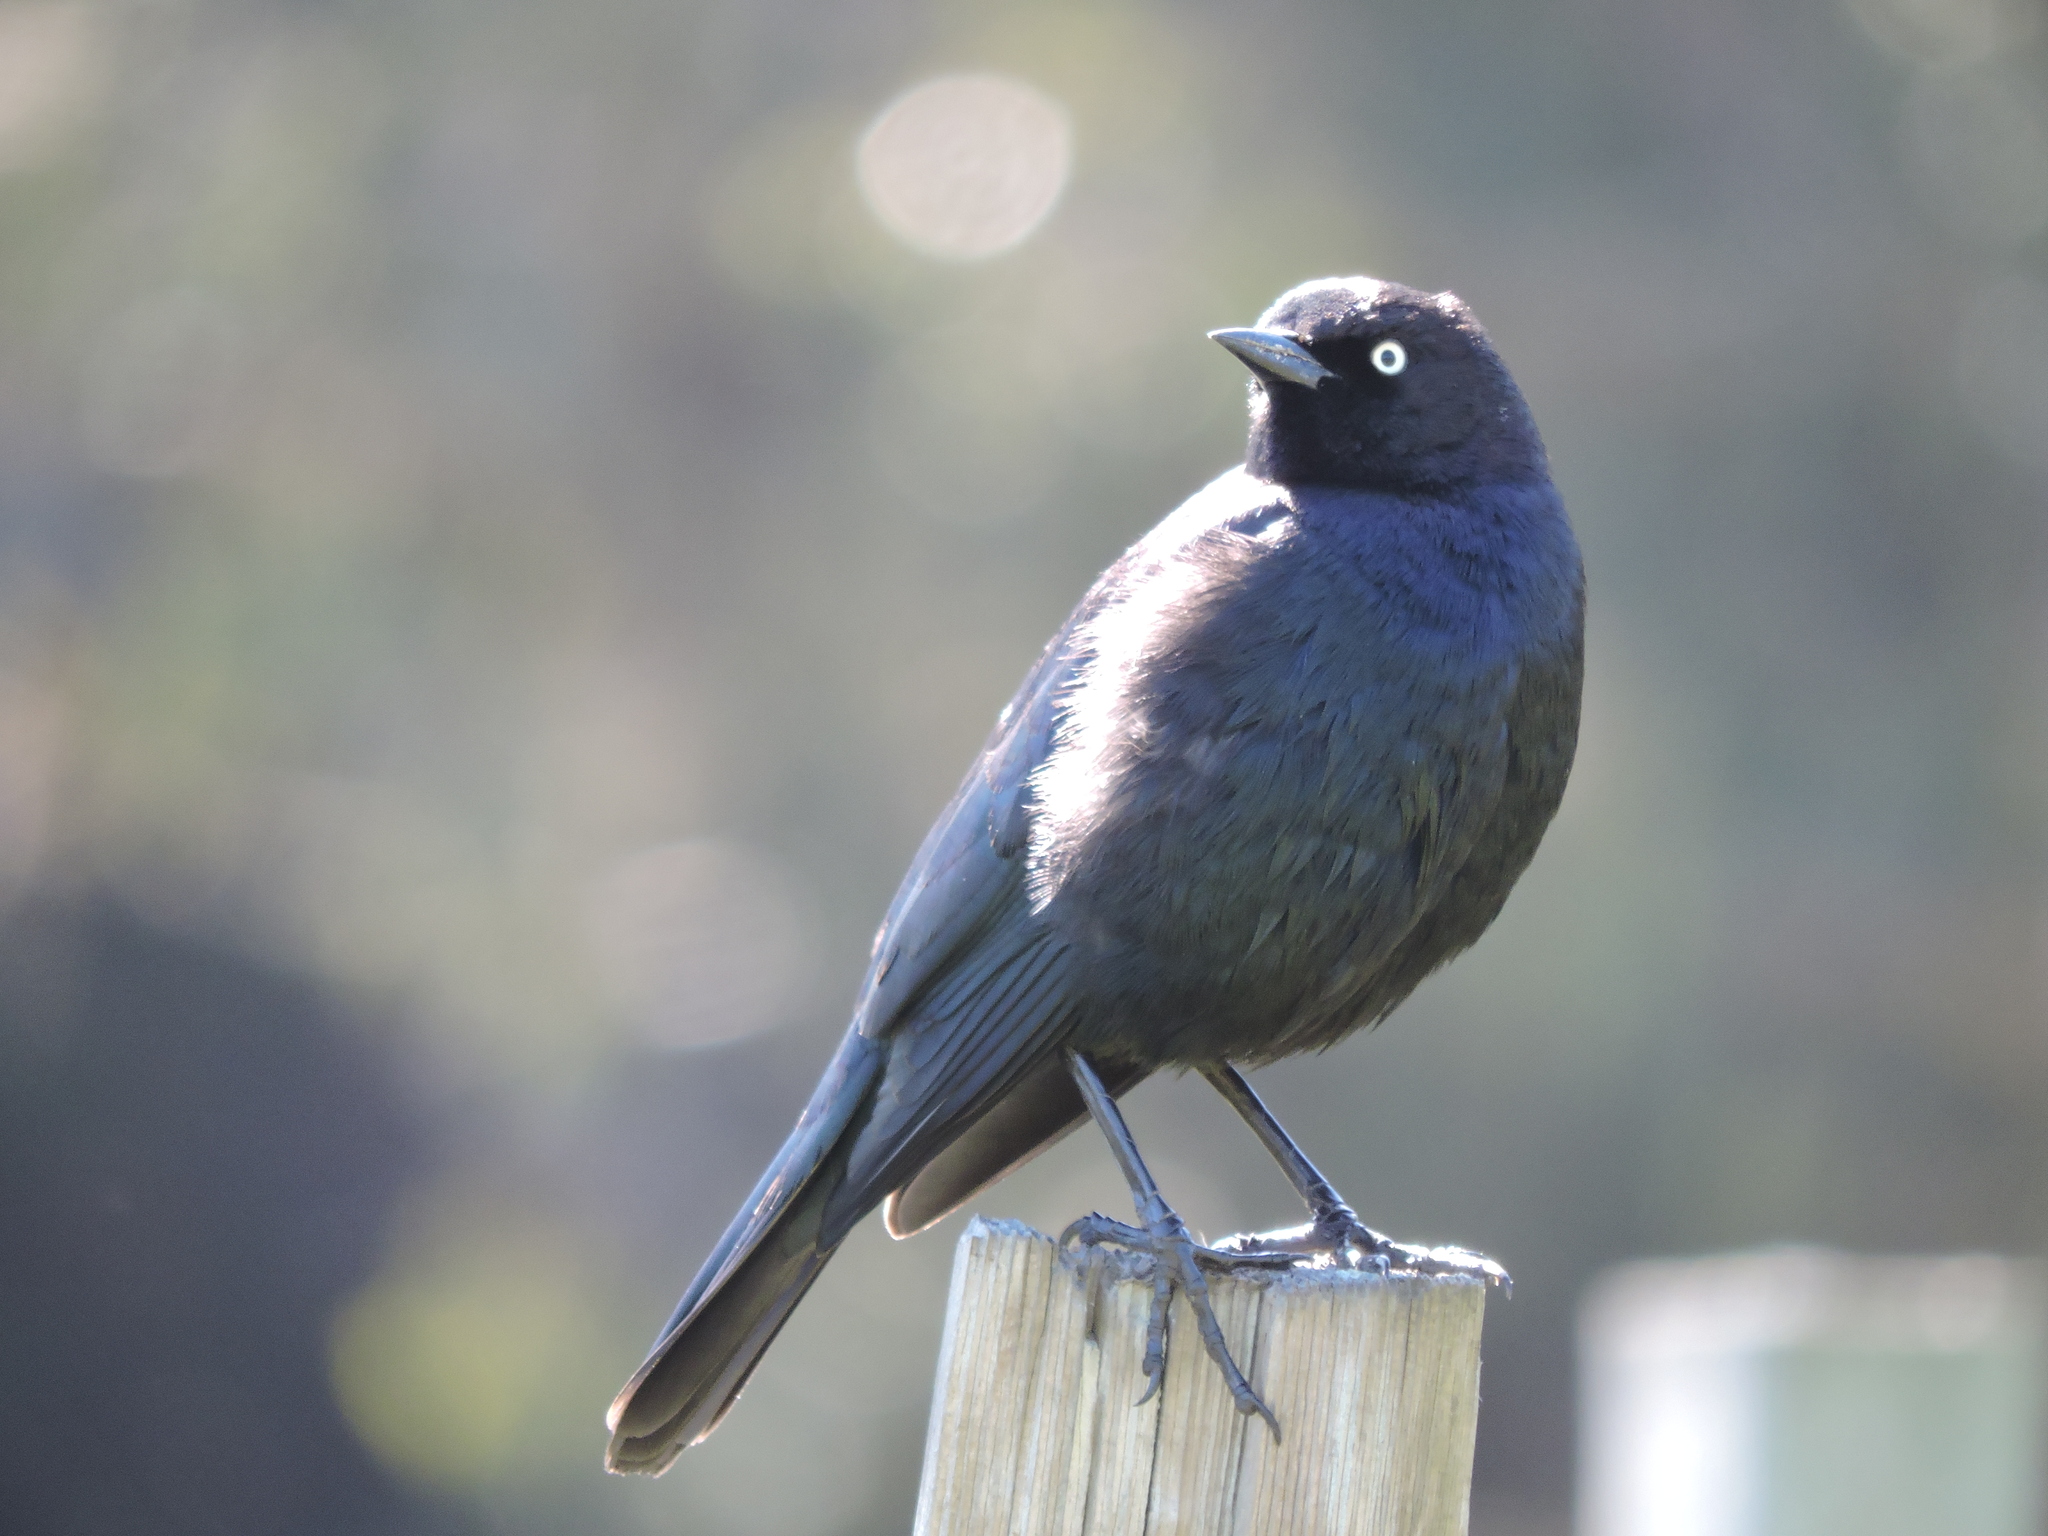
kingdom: Animalia
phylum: Chordata
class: Aves
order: Passeriformes
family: Icteridae
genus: Euphagus
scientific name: Euphagus cyanocephalus
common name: Brewer's blackbird
